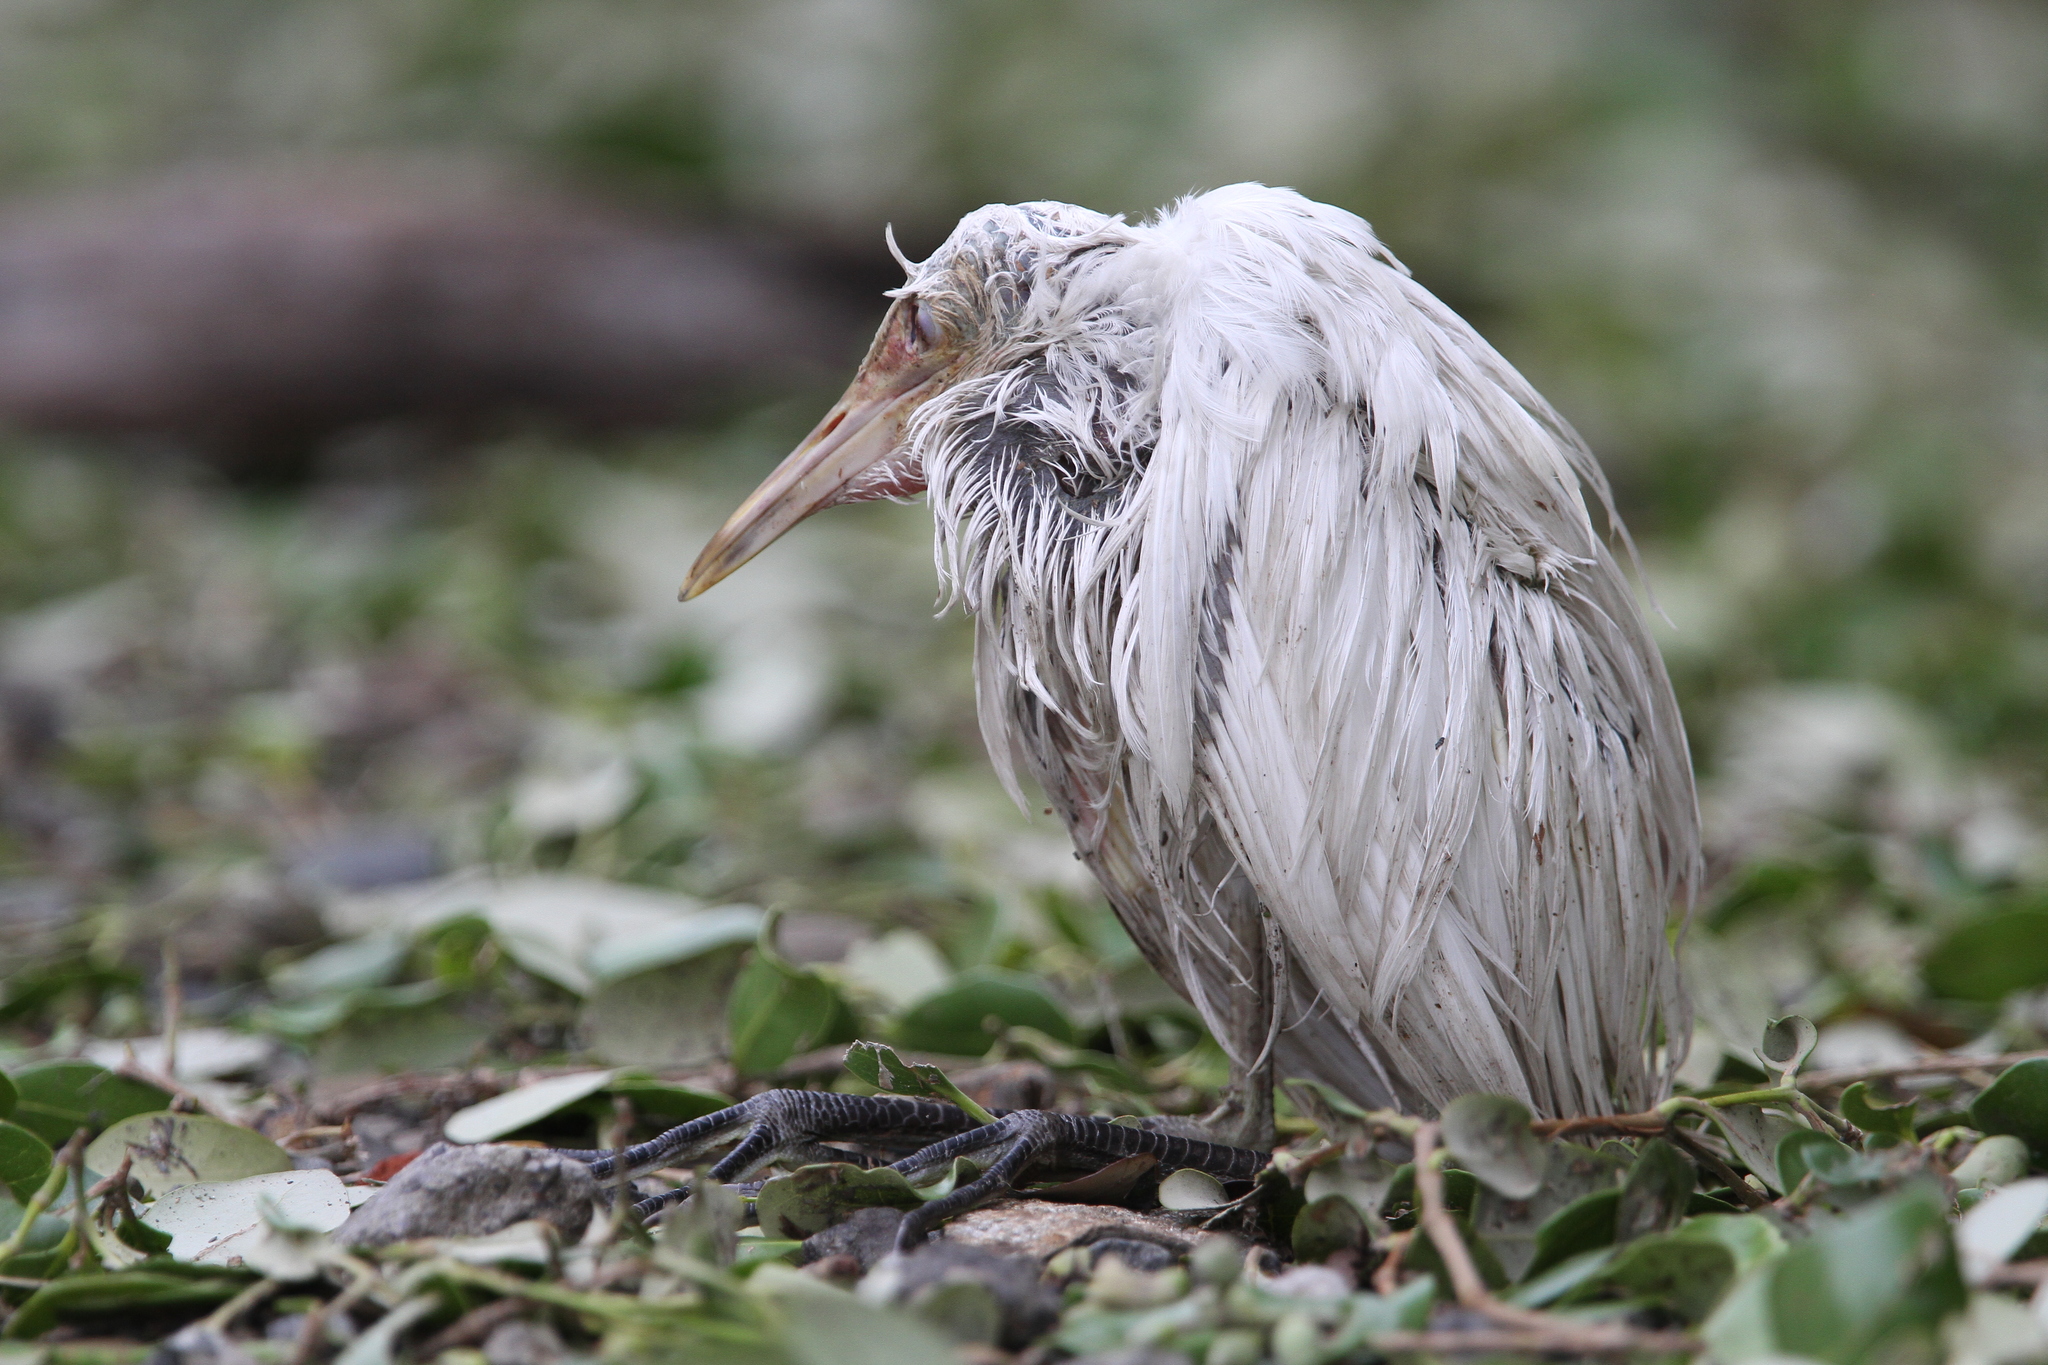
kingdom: Animalia
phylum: Chordata
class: Aves
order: Pelecaniformes
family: Ardeidae
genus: Bubulcus
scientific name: Bubulcus coromandus
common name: Eastern cattle egret
